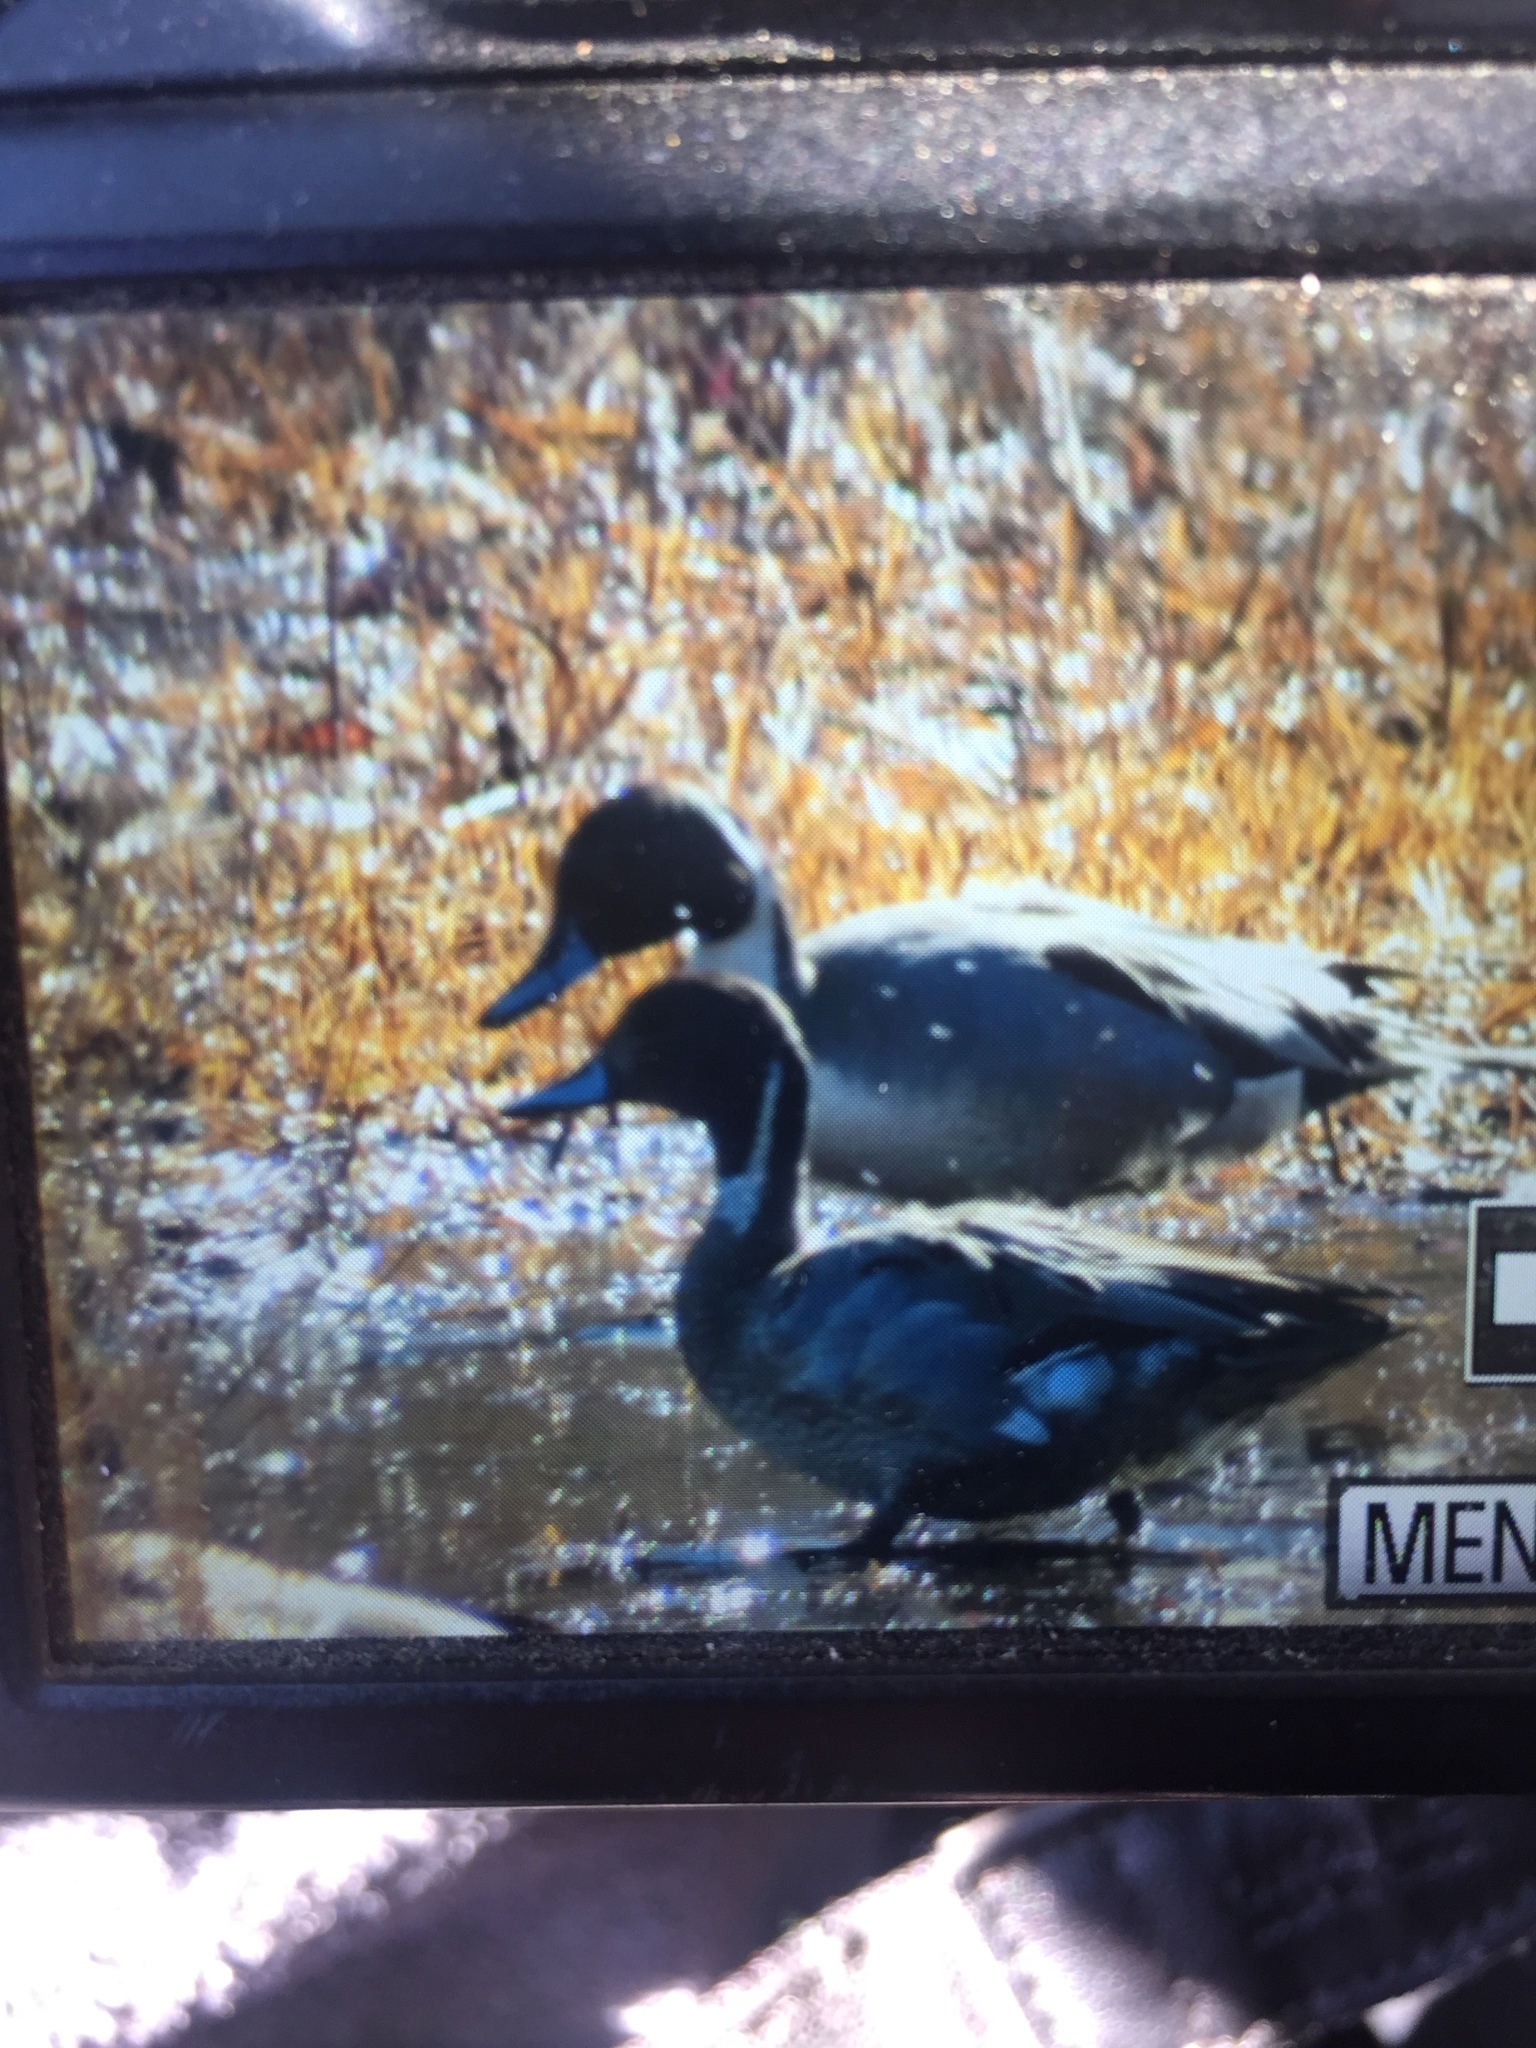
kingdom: Animalia
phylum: Chordata
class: Aves
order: Anseriformes
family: Anatidae
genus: Anas
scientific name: Anas acuta
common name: Northern pintail
